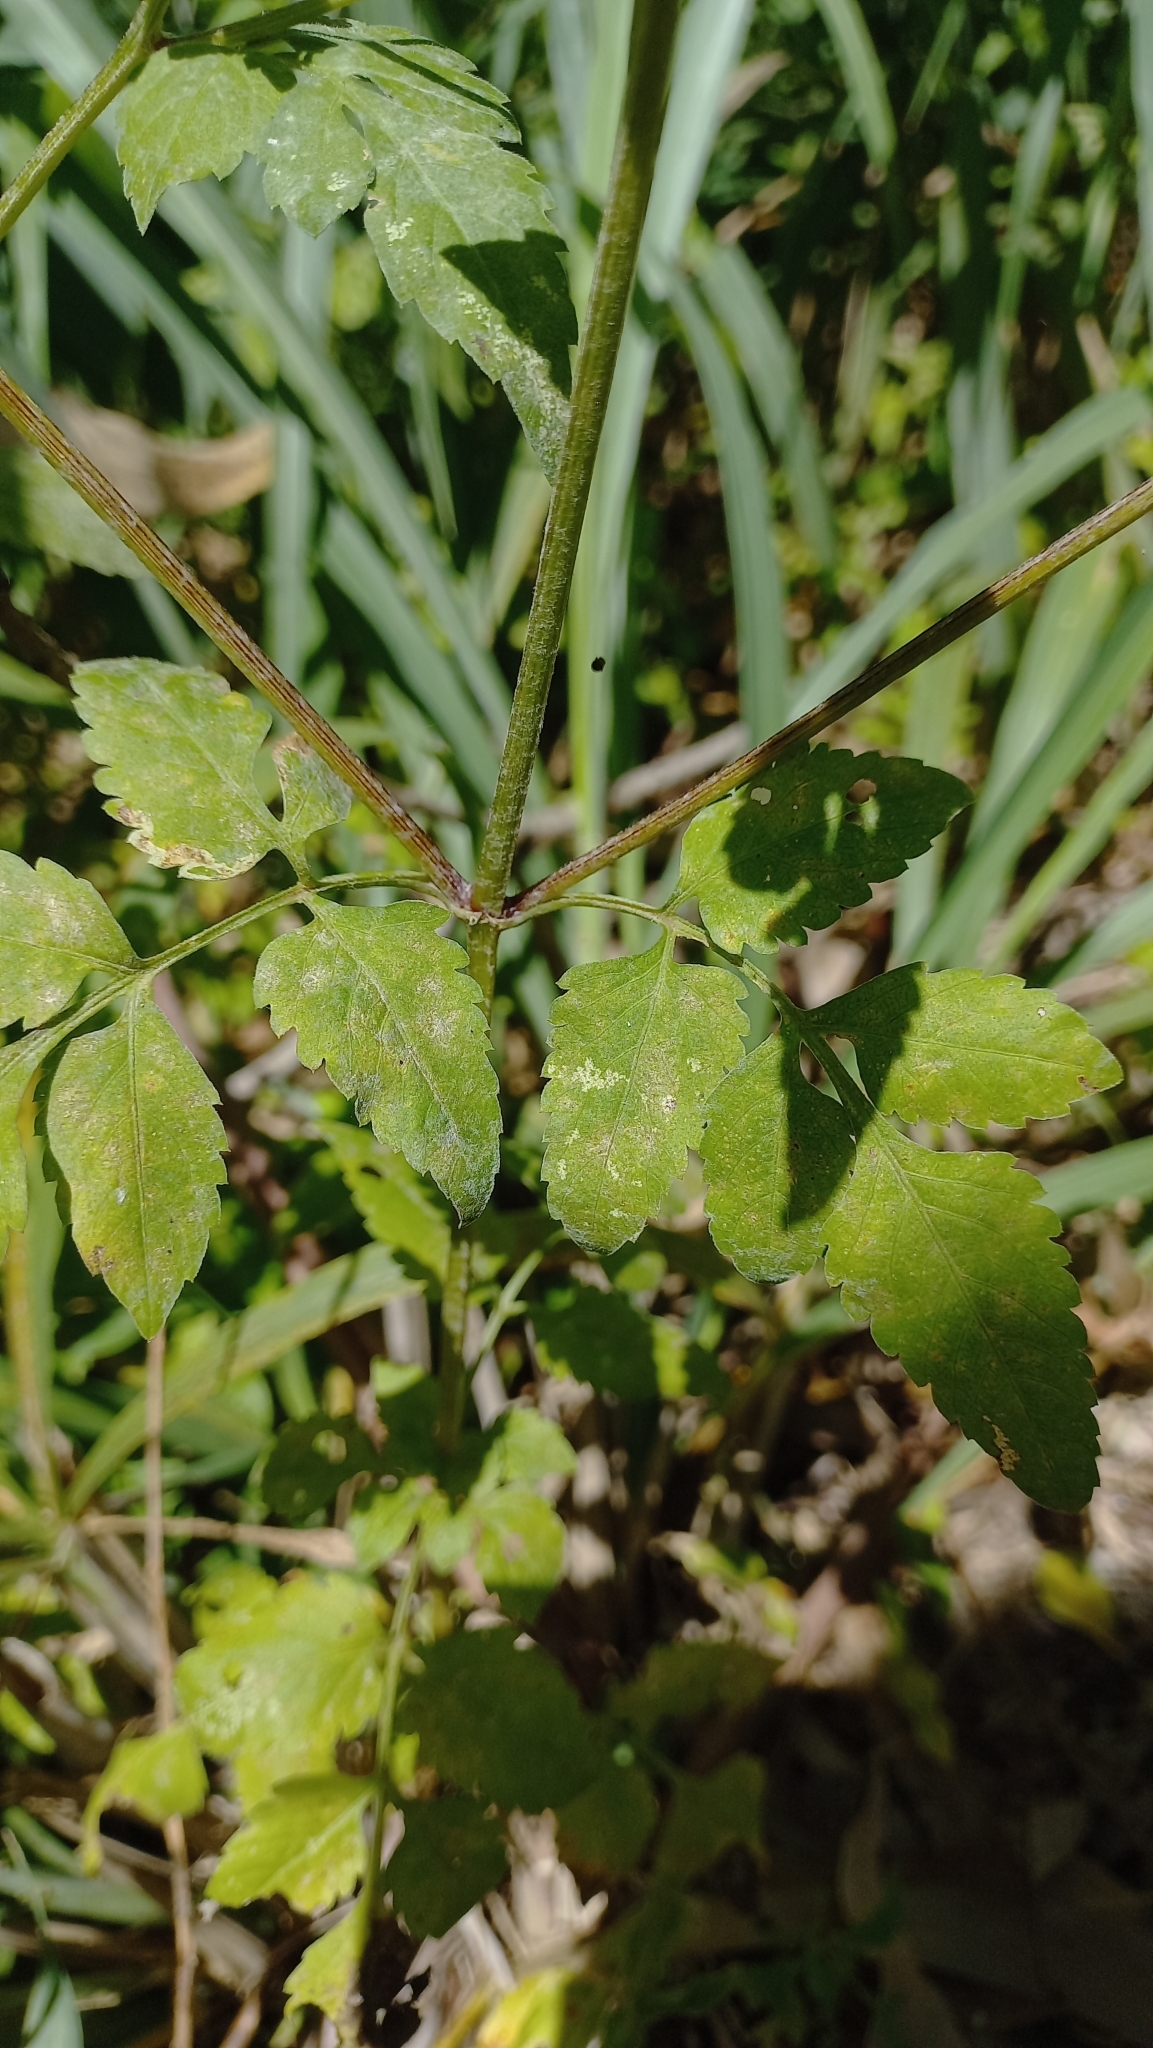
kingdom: Plantae
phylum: Tracheophyta
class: Magnoliopsida
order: Asterales
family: Asteraceae
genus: Bidens
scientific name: Bidens pilosa
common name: Black-jack
